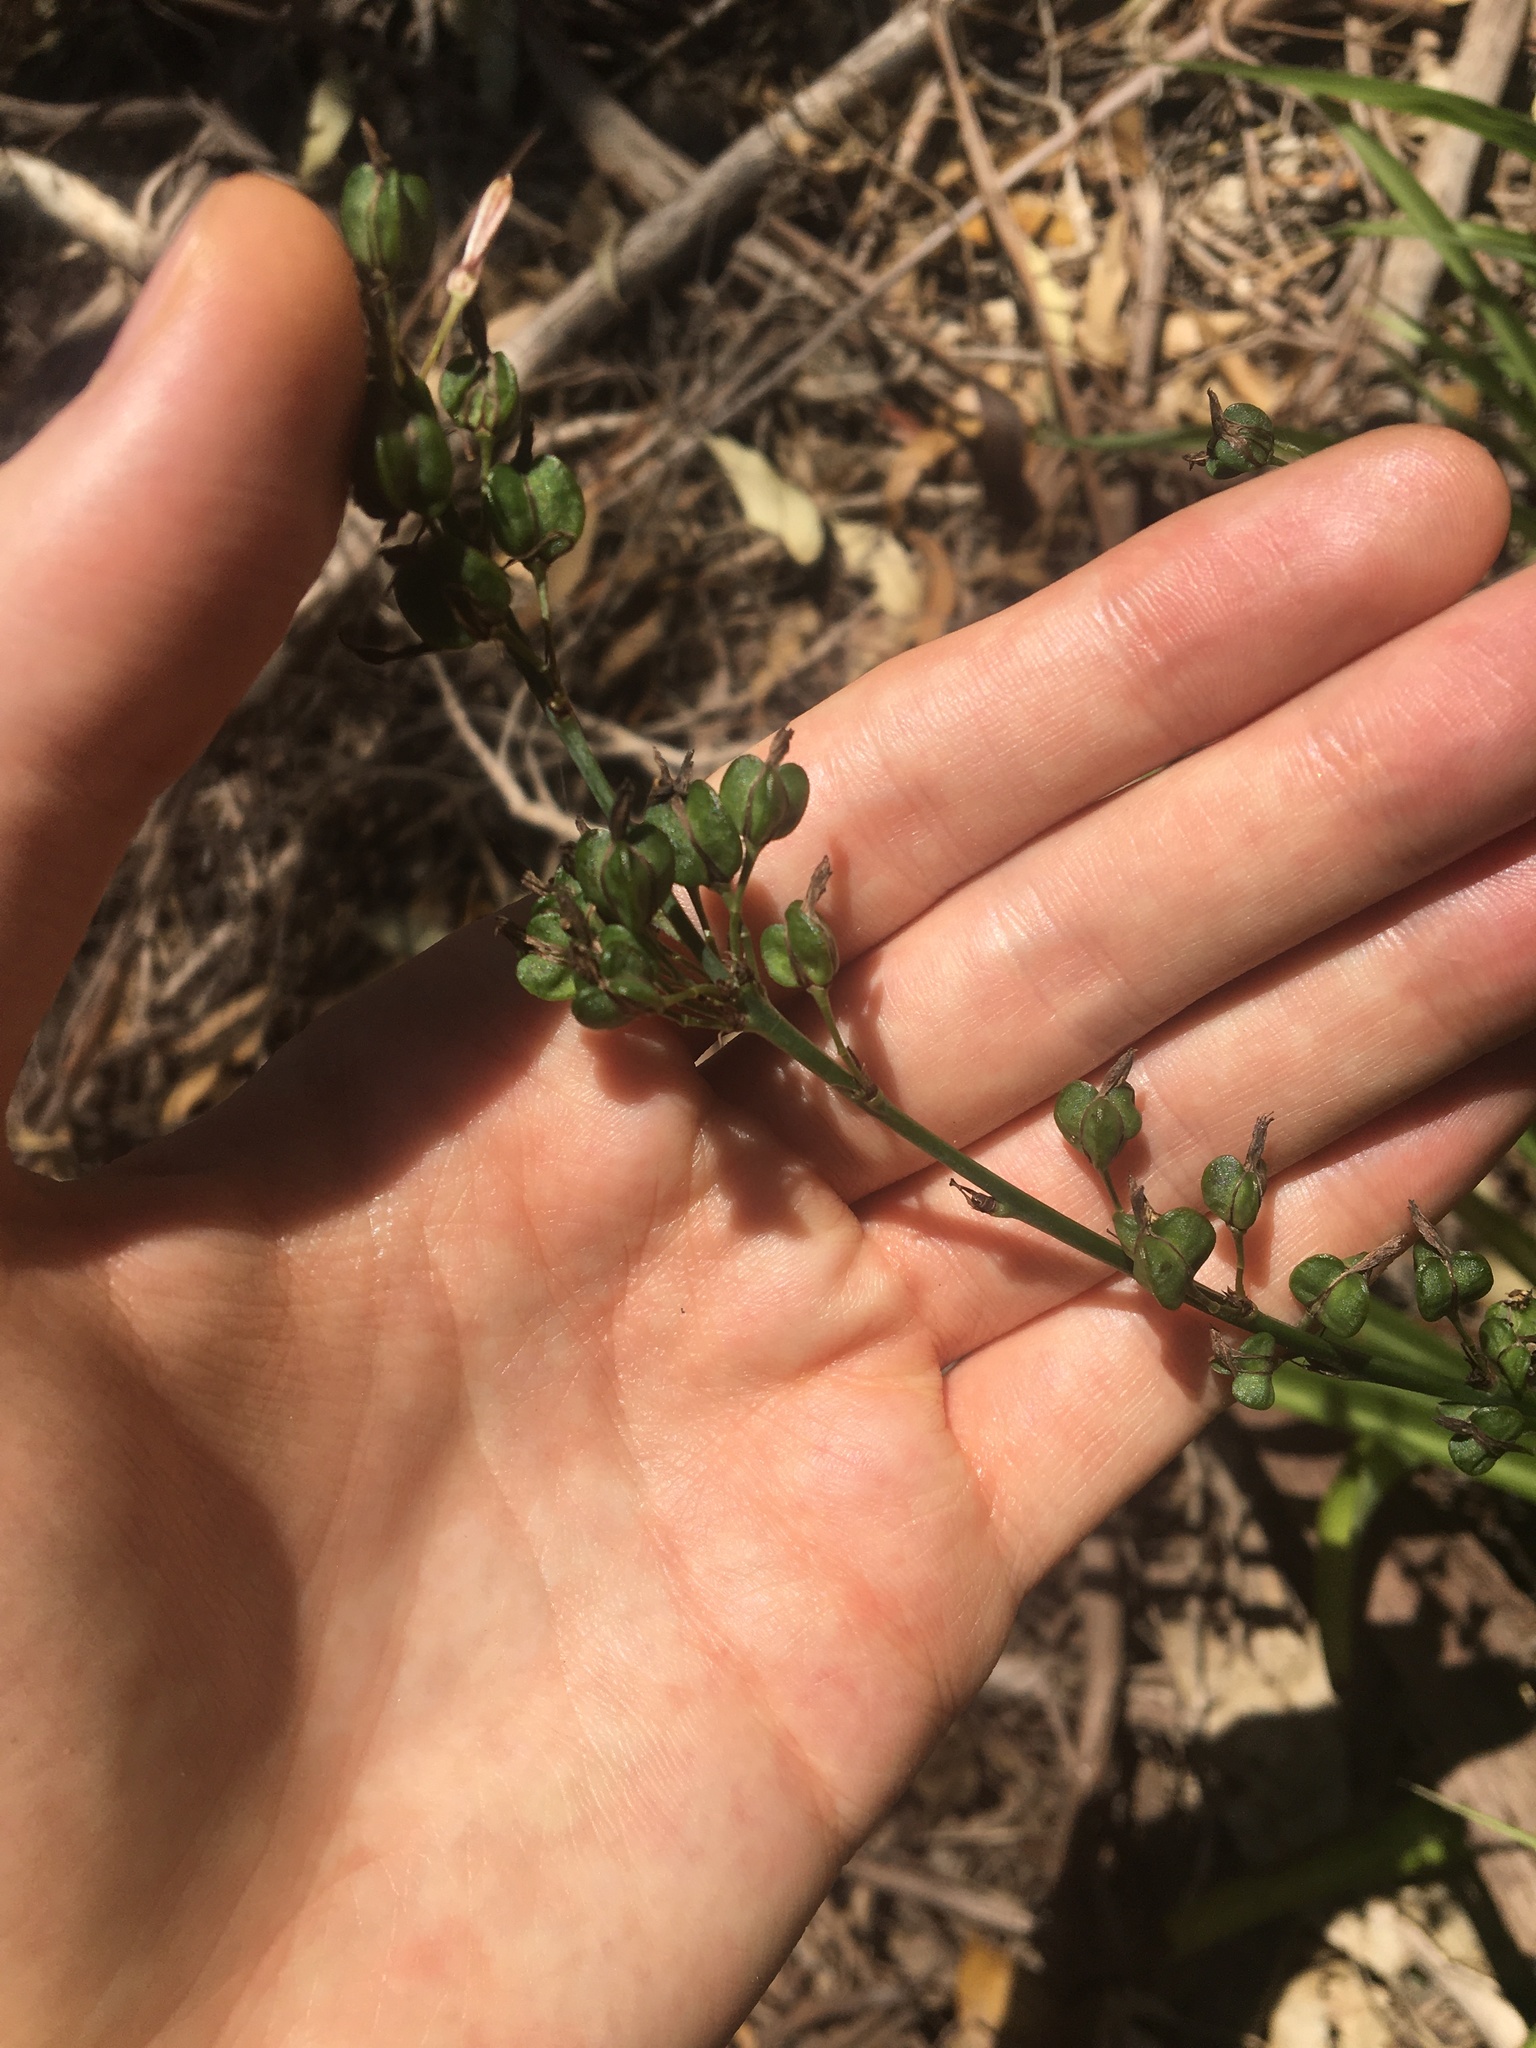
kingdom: Plantae
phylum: Tracheophyta
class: Liliopsida
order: Asparagales
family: Asparagaceae
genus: Chlorophytum
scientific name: Chlorophytum comosum
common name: Spider plant
